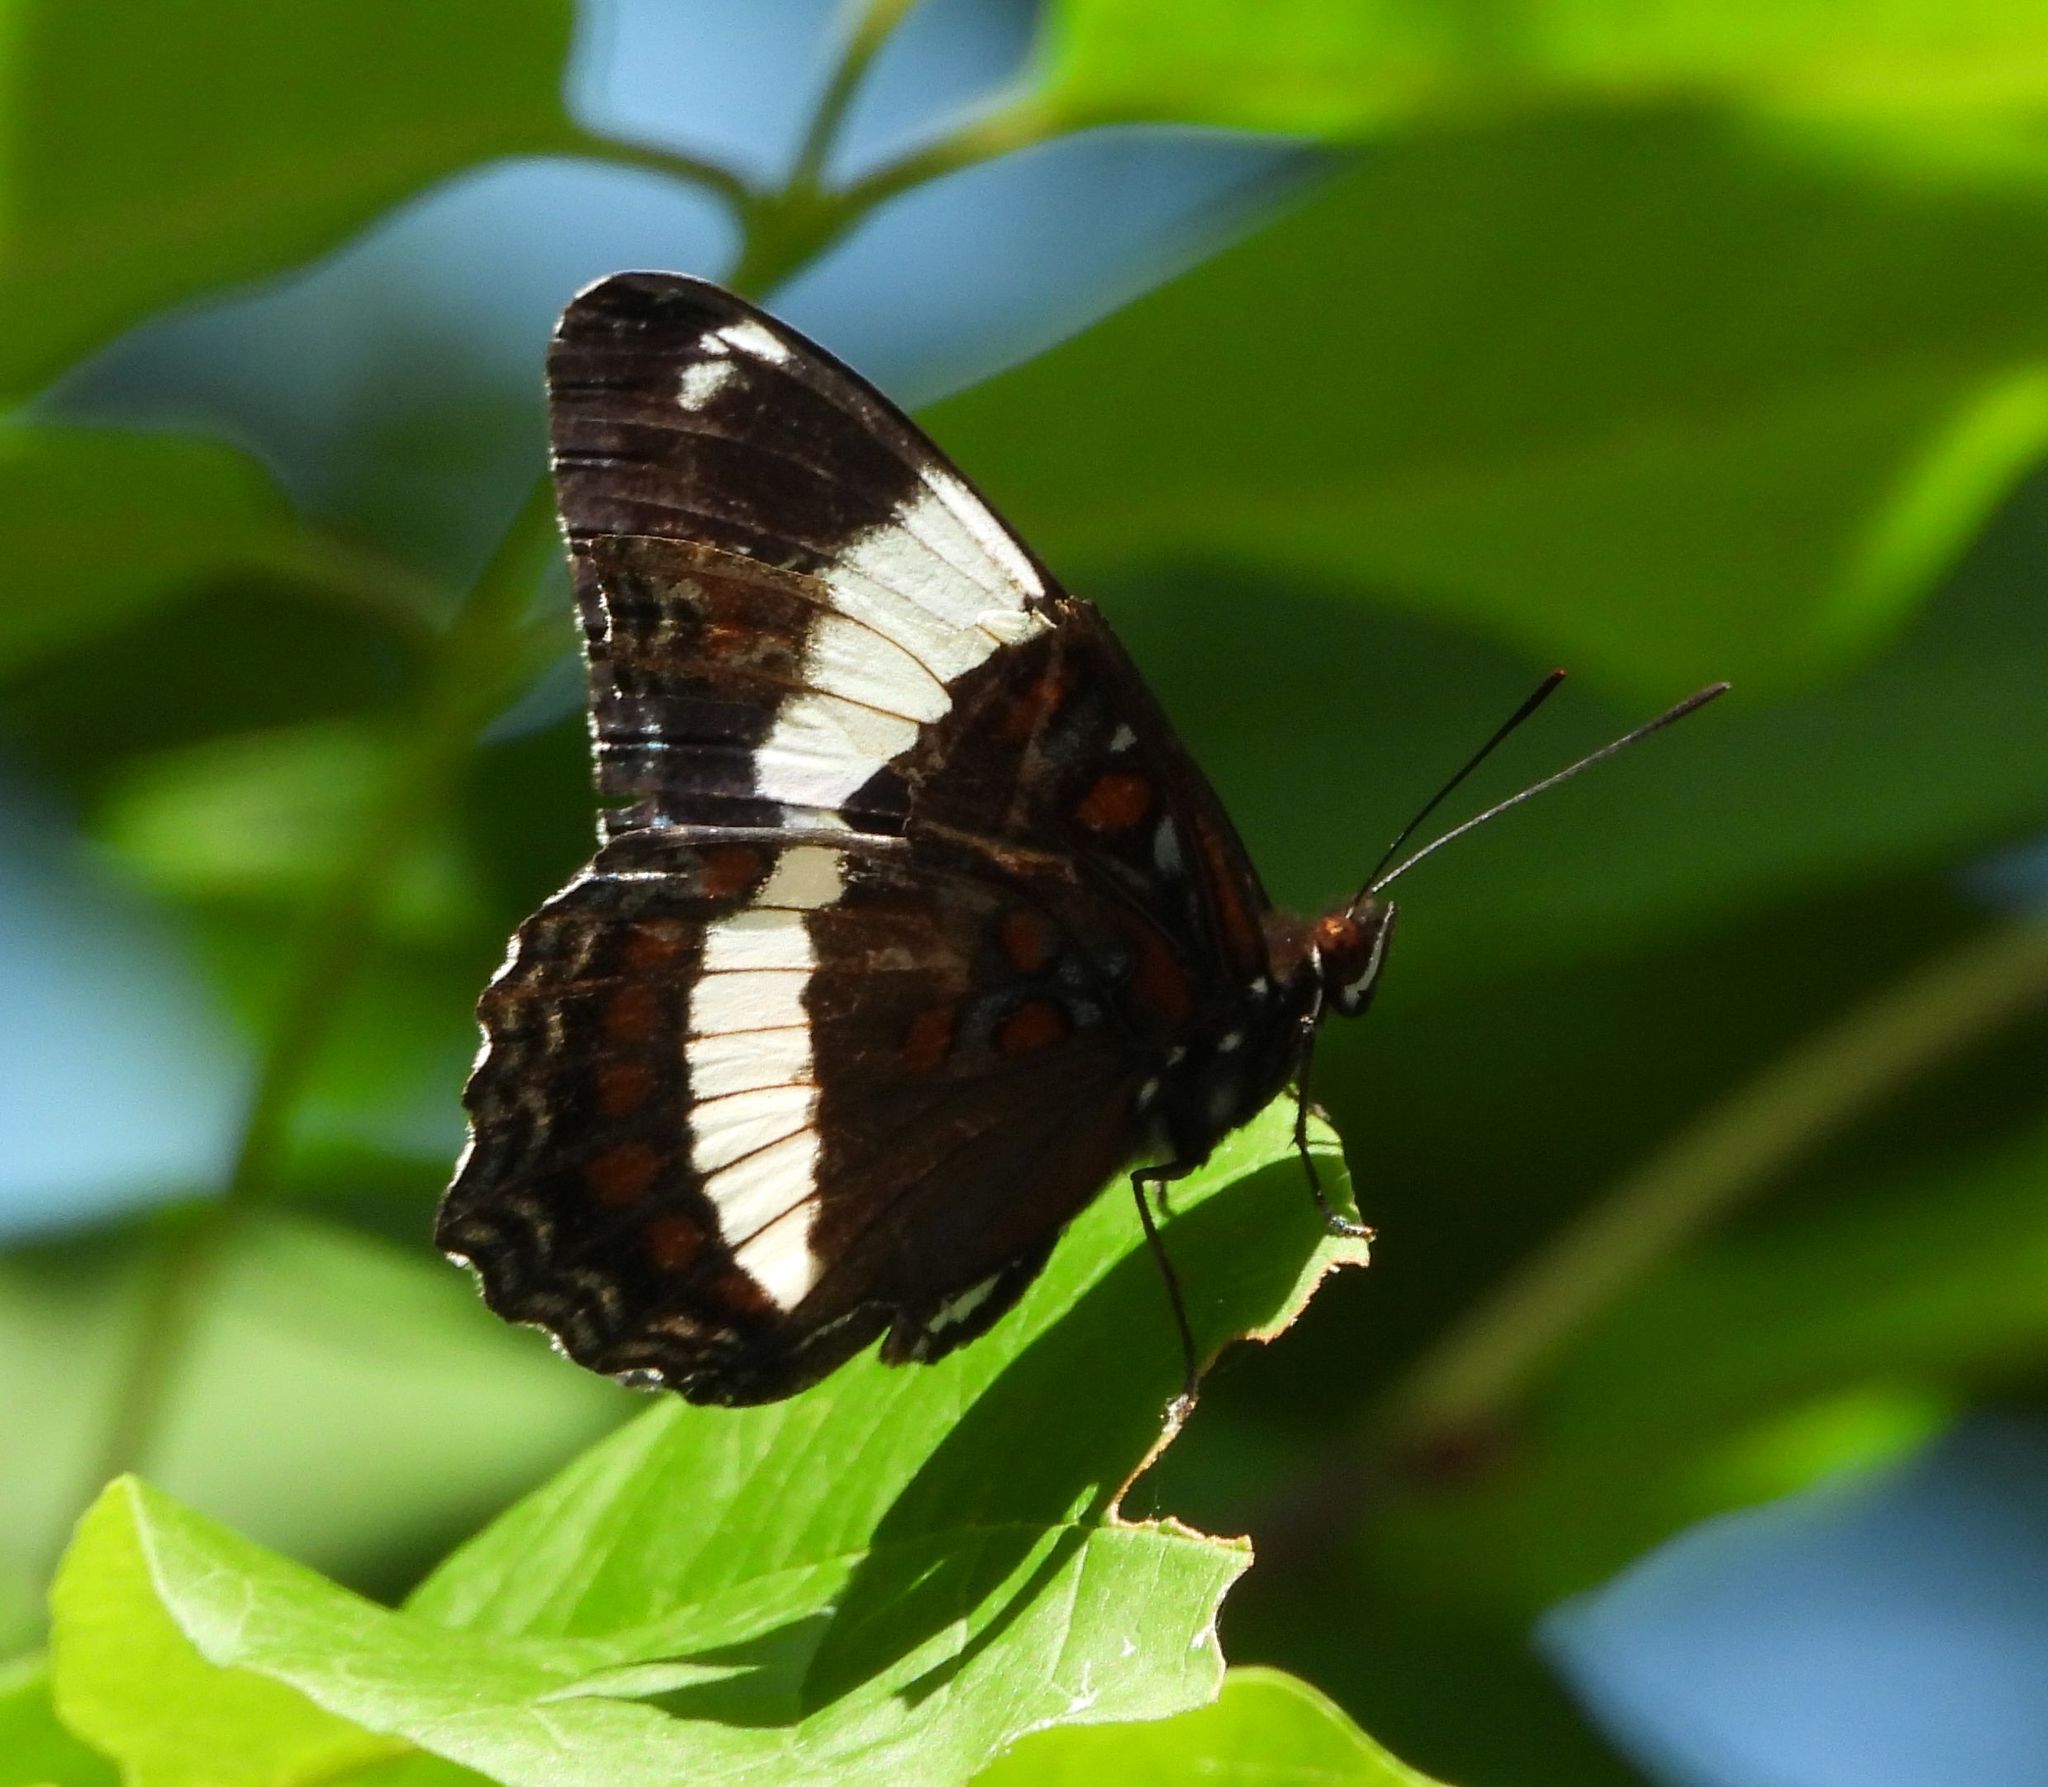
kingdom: Animalia
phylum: Arthropoda
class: Insecta
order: Lepidoptera
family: Nymphalidae
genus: Limenitis
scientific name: Limenitis arthemis
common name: Red-spotted admiral
